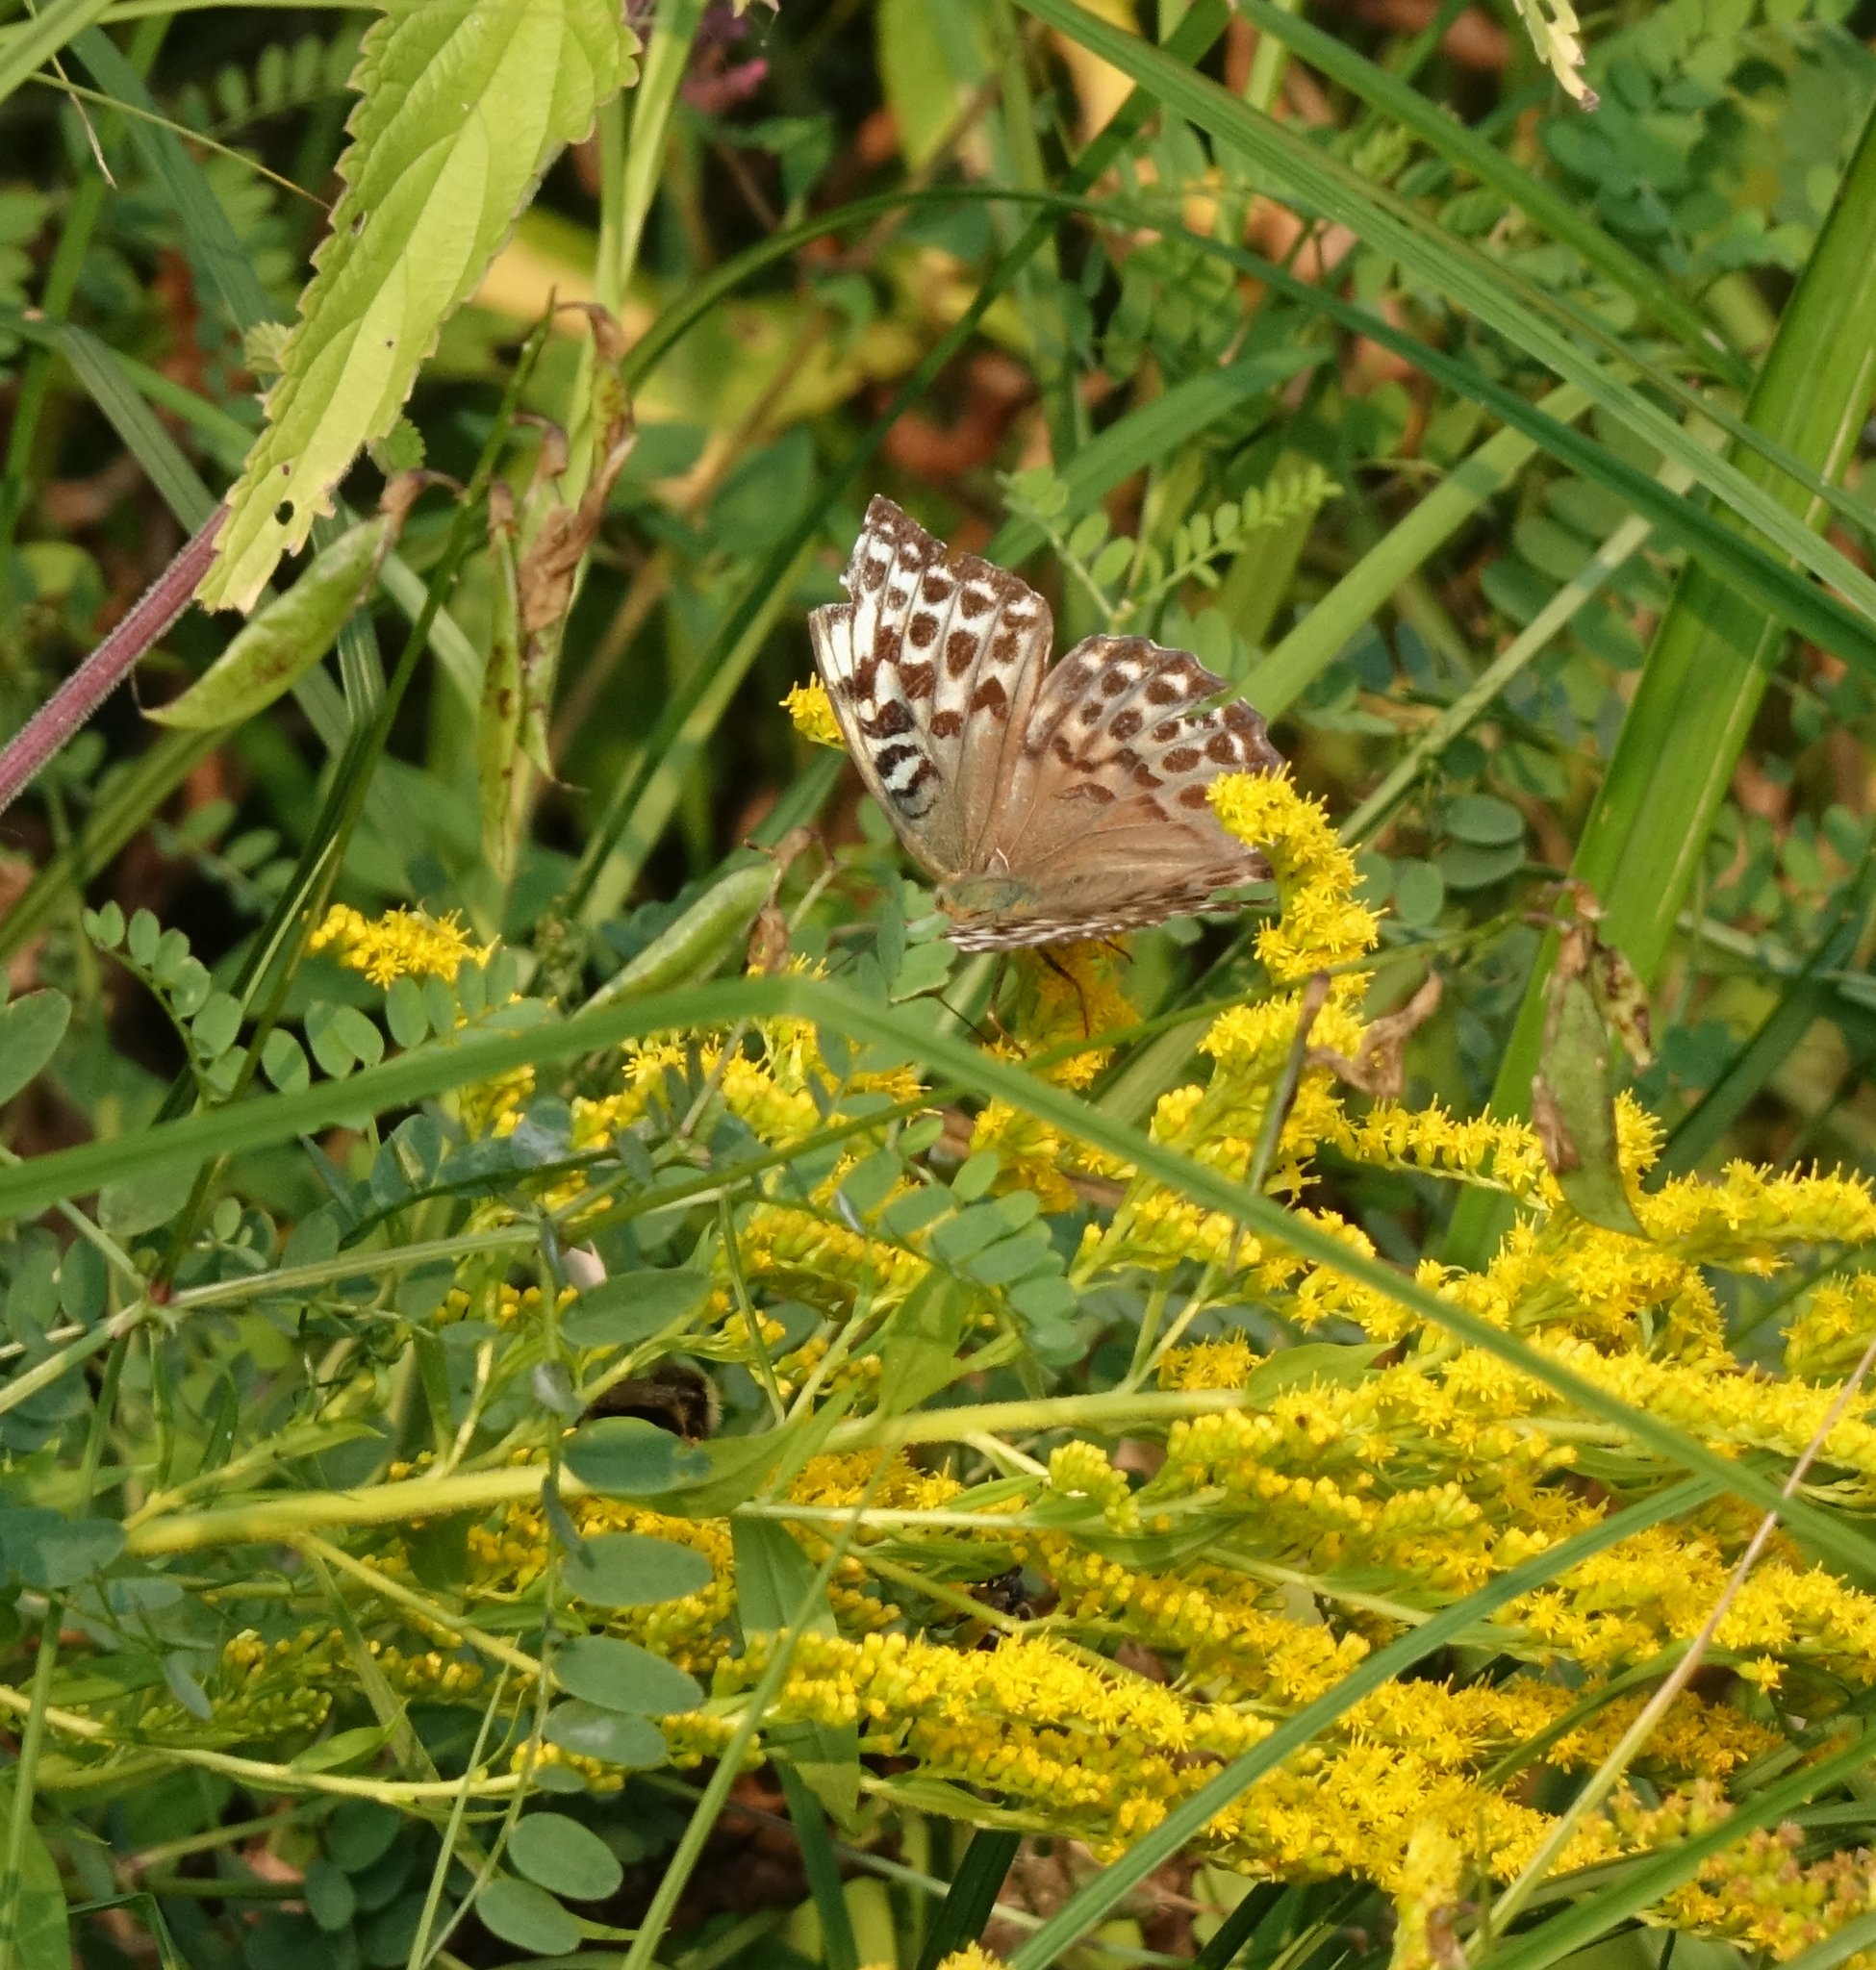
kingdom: Animalia
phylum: Arthropoda
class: Insecta
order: Lepidoptera
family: Nymphalidae
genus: Argynnis
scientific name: Argynnis paphia
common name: Silver-washed fritillary
